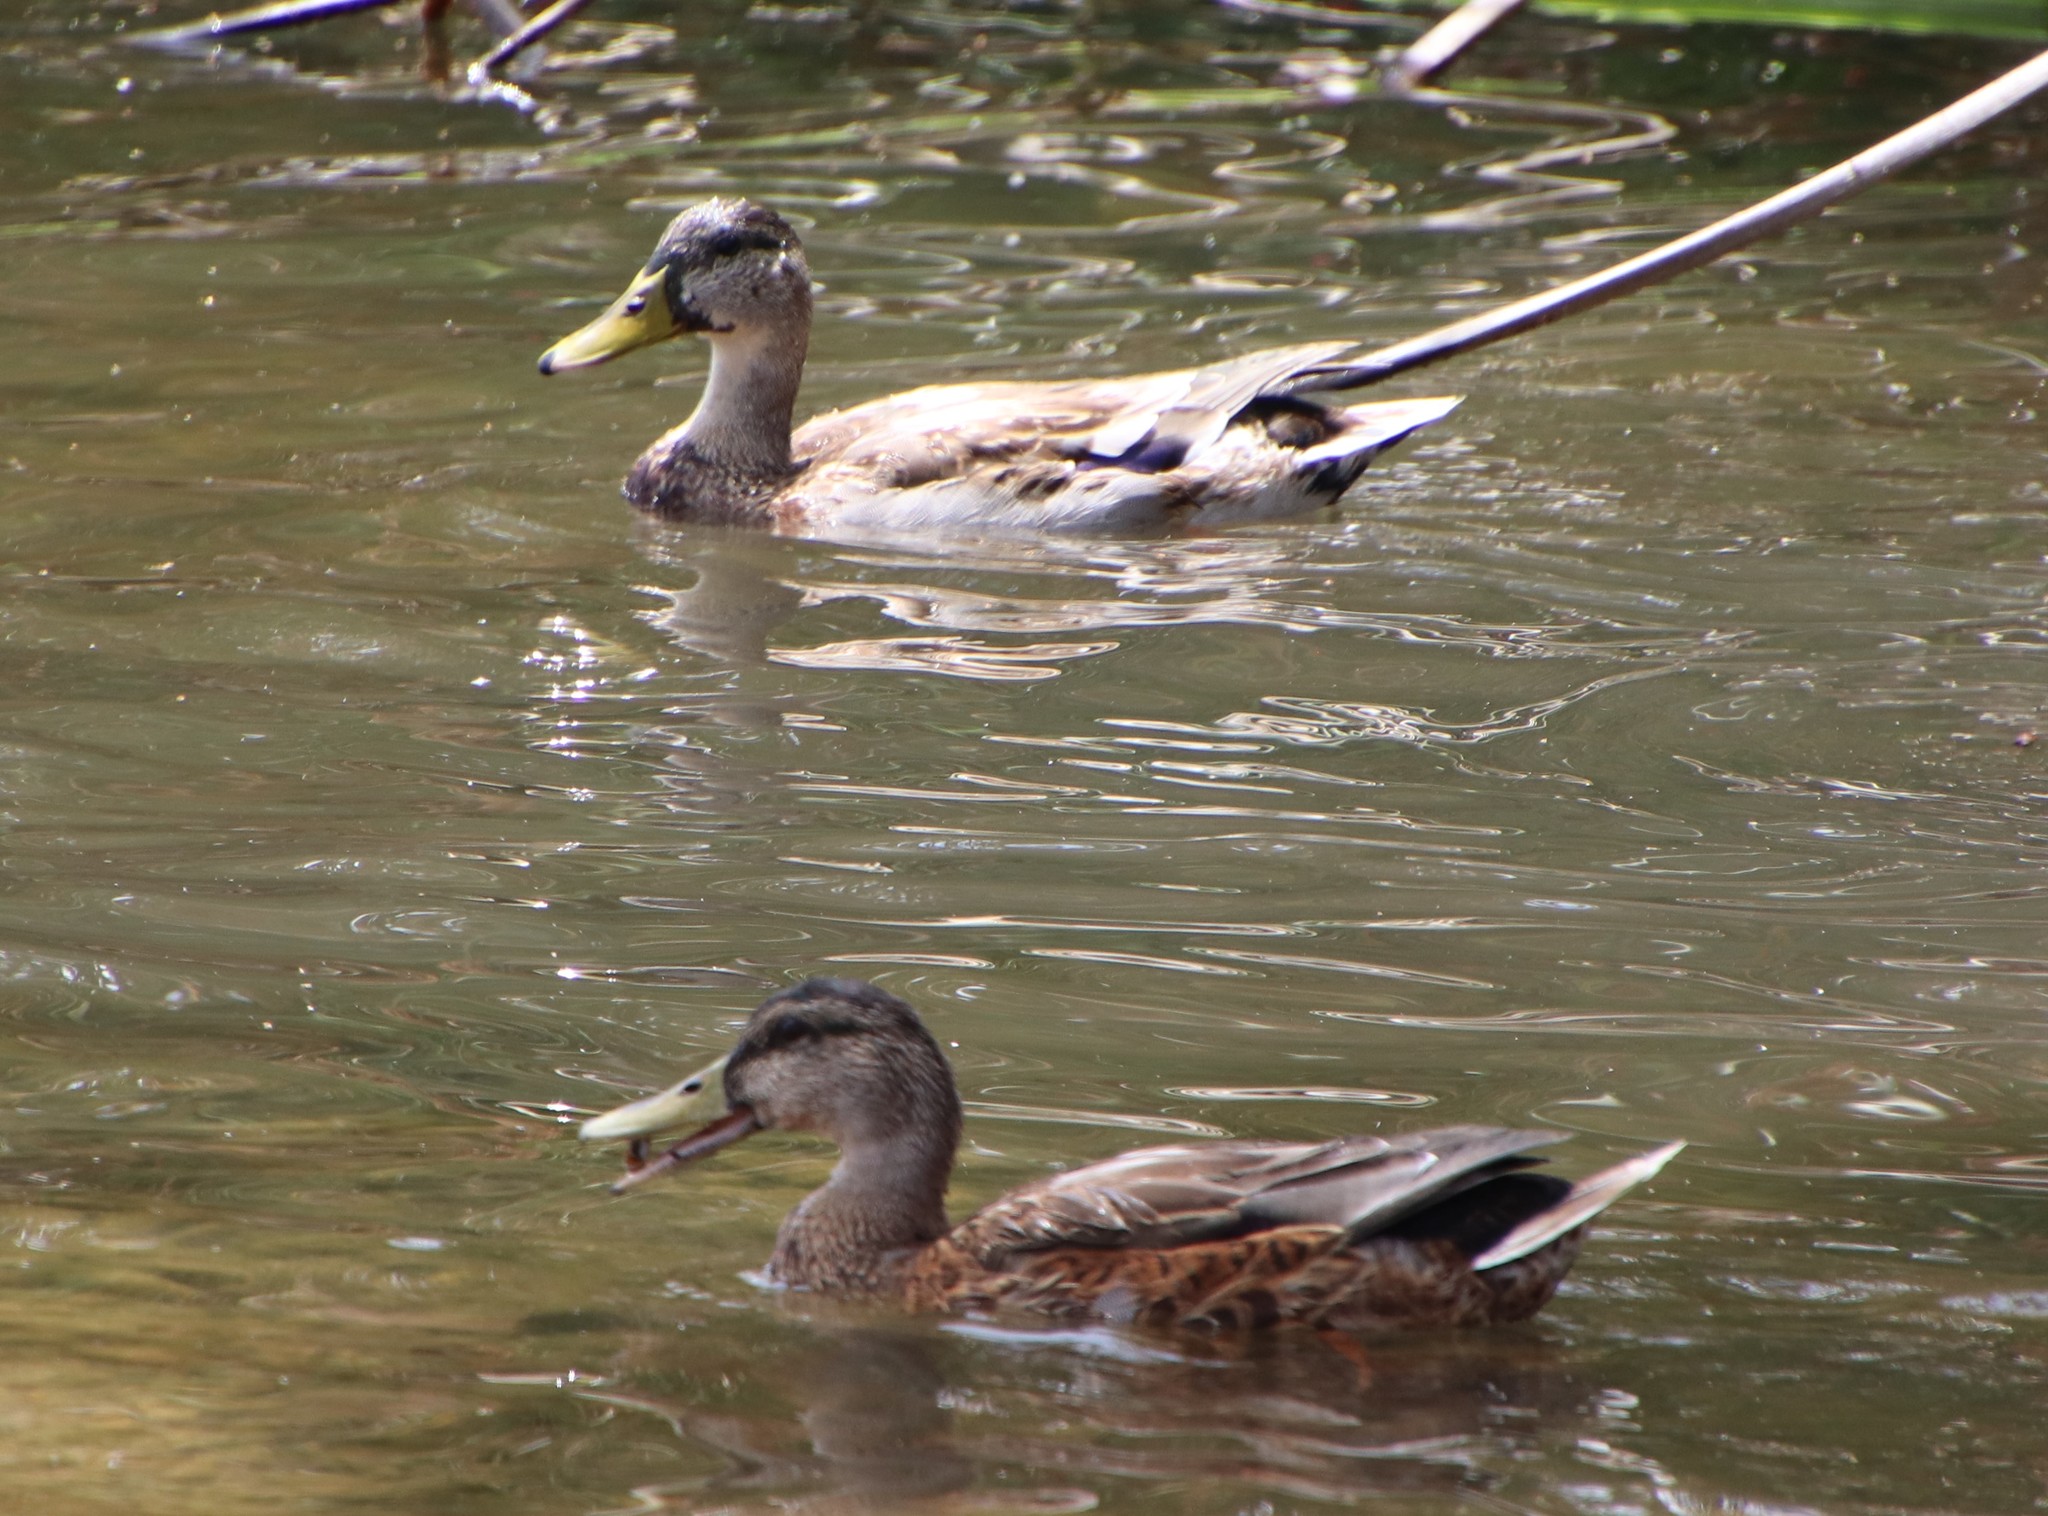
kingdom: Animalia
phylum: Chordata
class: Aves
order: Anseriformes
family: Anatidae
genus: Anas
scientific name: Anas platyrhynchos
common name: Mallard
